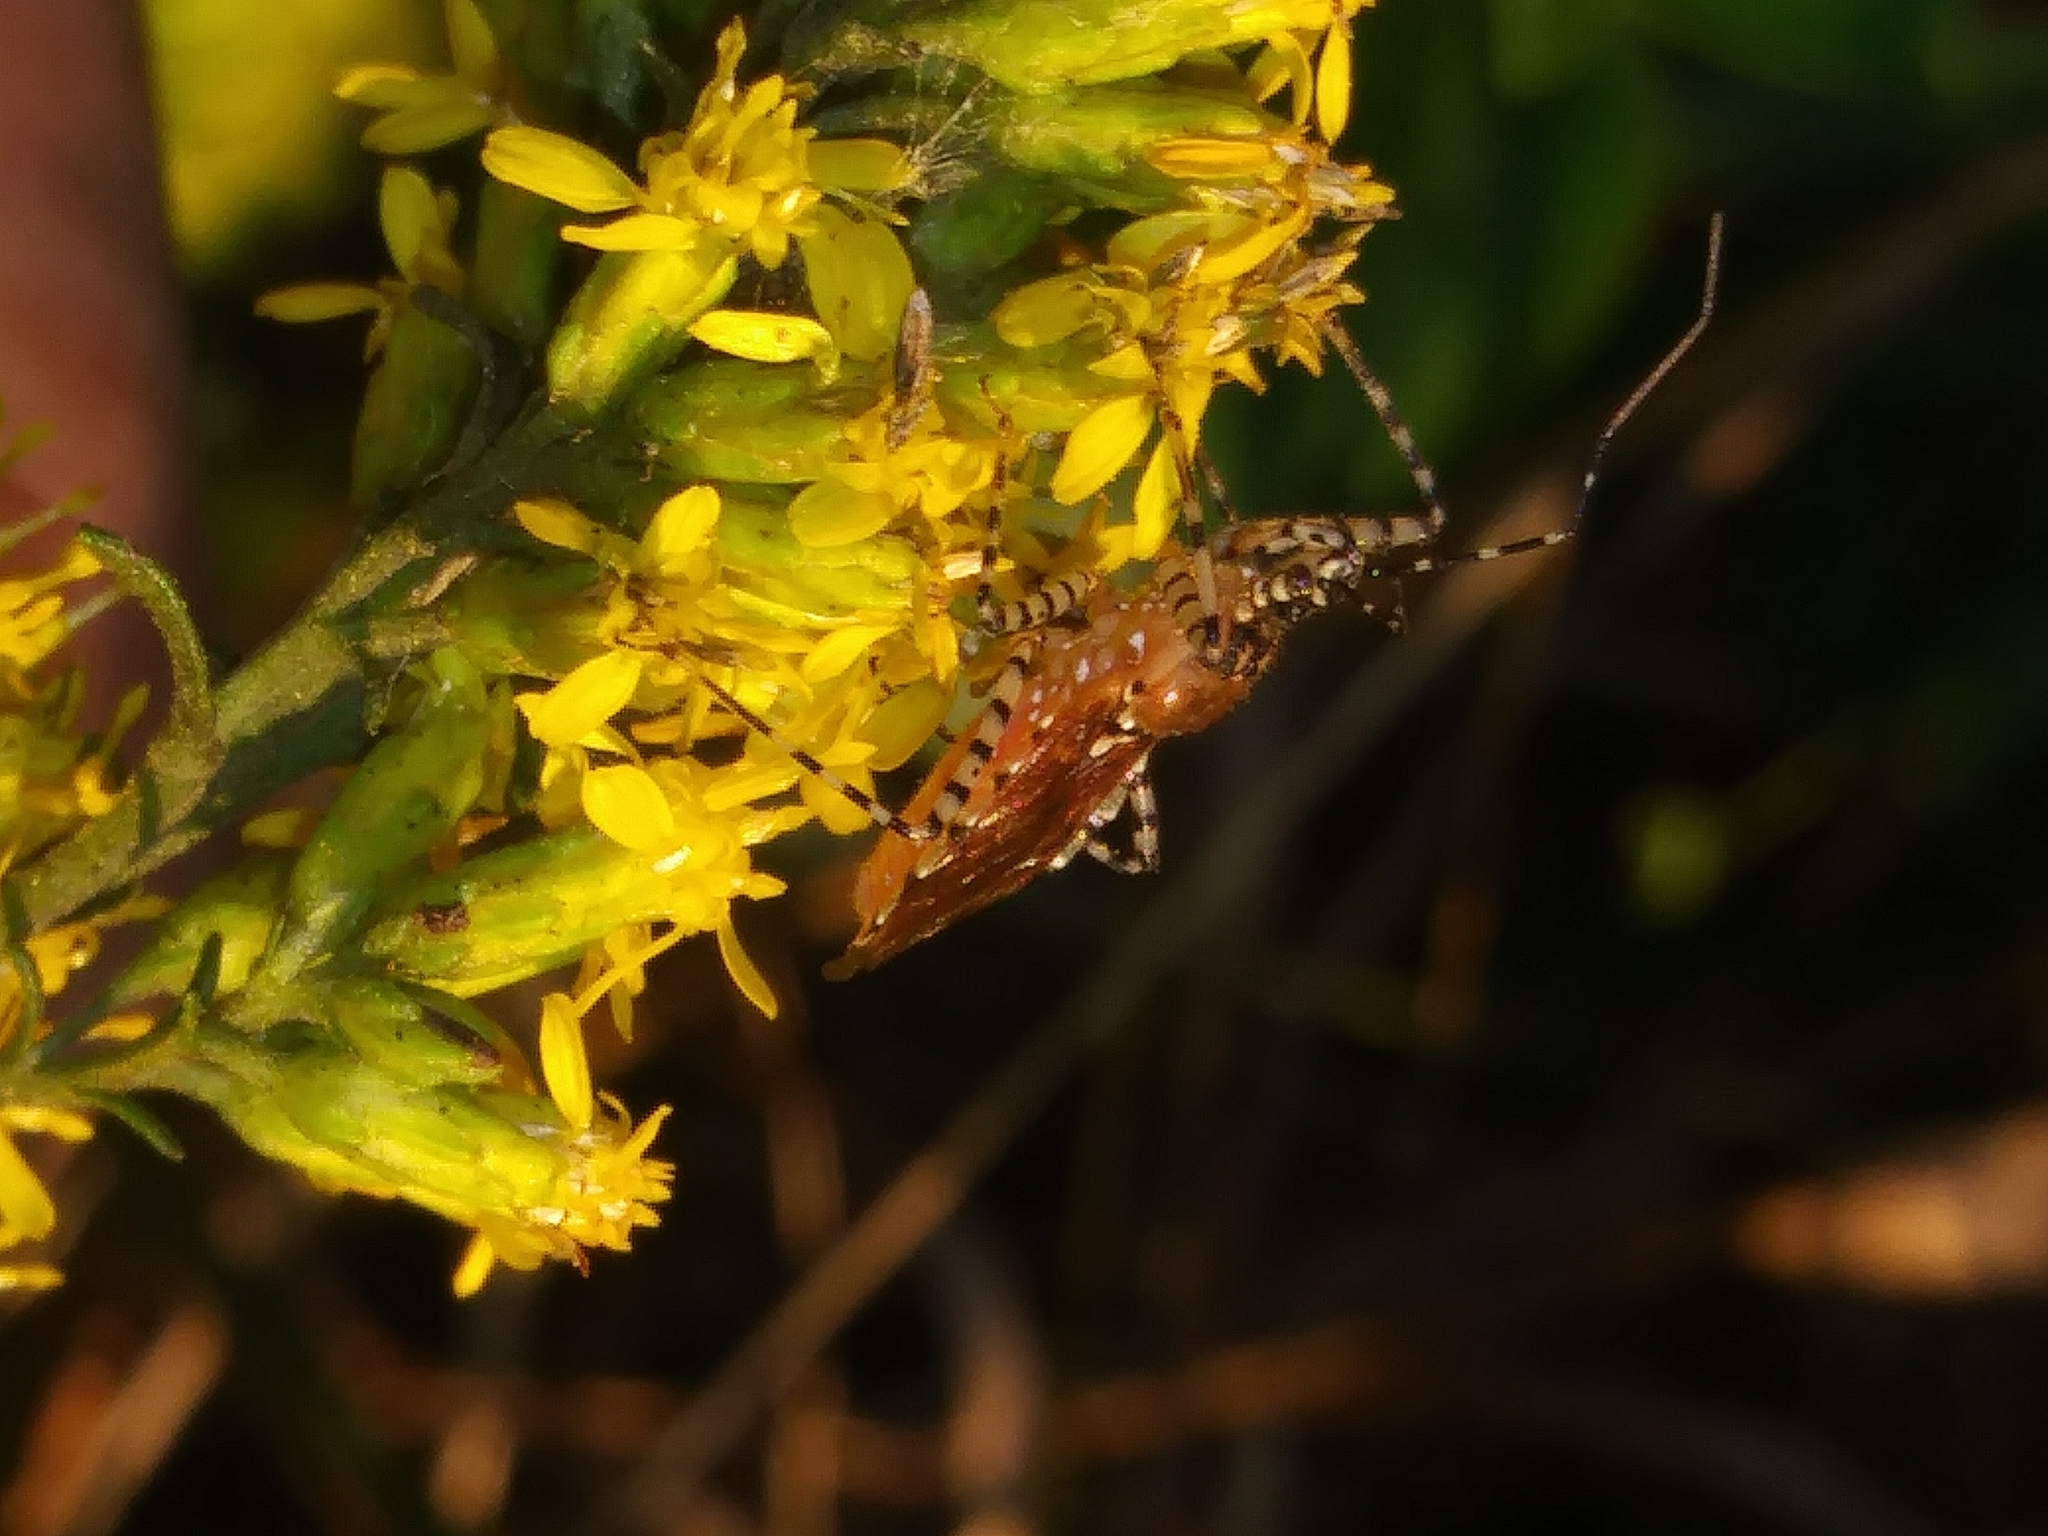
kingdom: Animalia
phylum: Arthropoda
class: Insecta
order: Hemiptera
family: Reduviidae
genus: Pselliopus
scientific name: Pselliopus cinctus
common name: Ringed assassin bug
